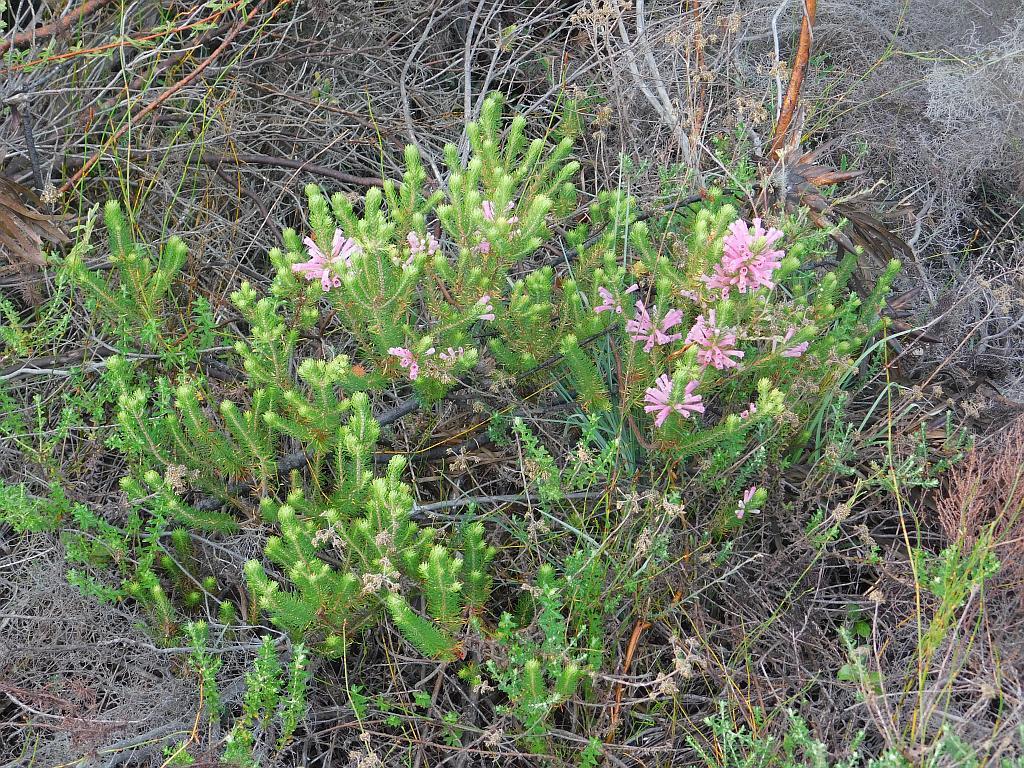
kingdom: Plantae
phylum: Tracheophyta
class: Magnoliopsida
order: Ericales
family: Ericaceae
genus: Erica
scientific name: Erica pinea
